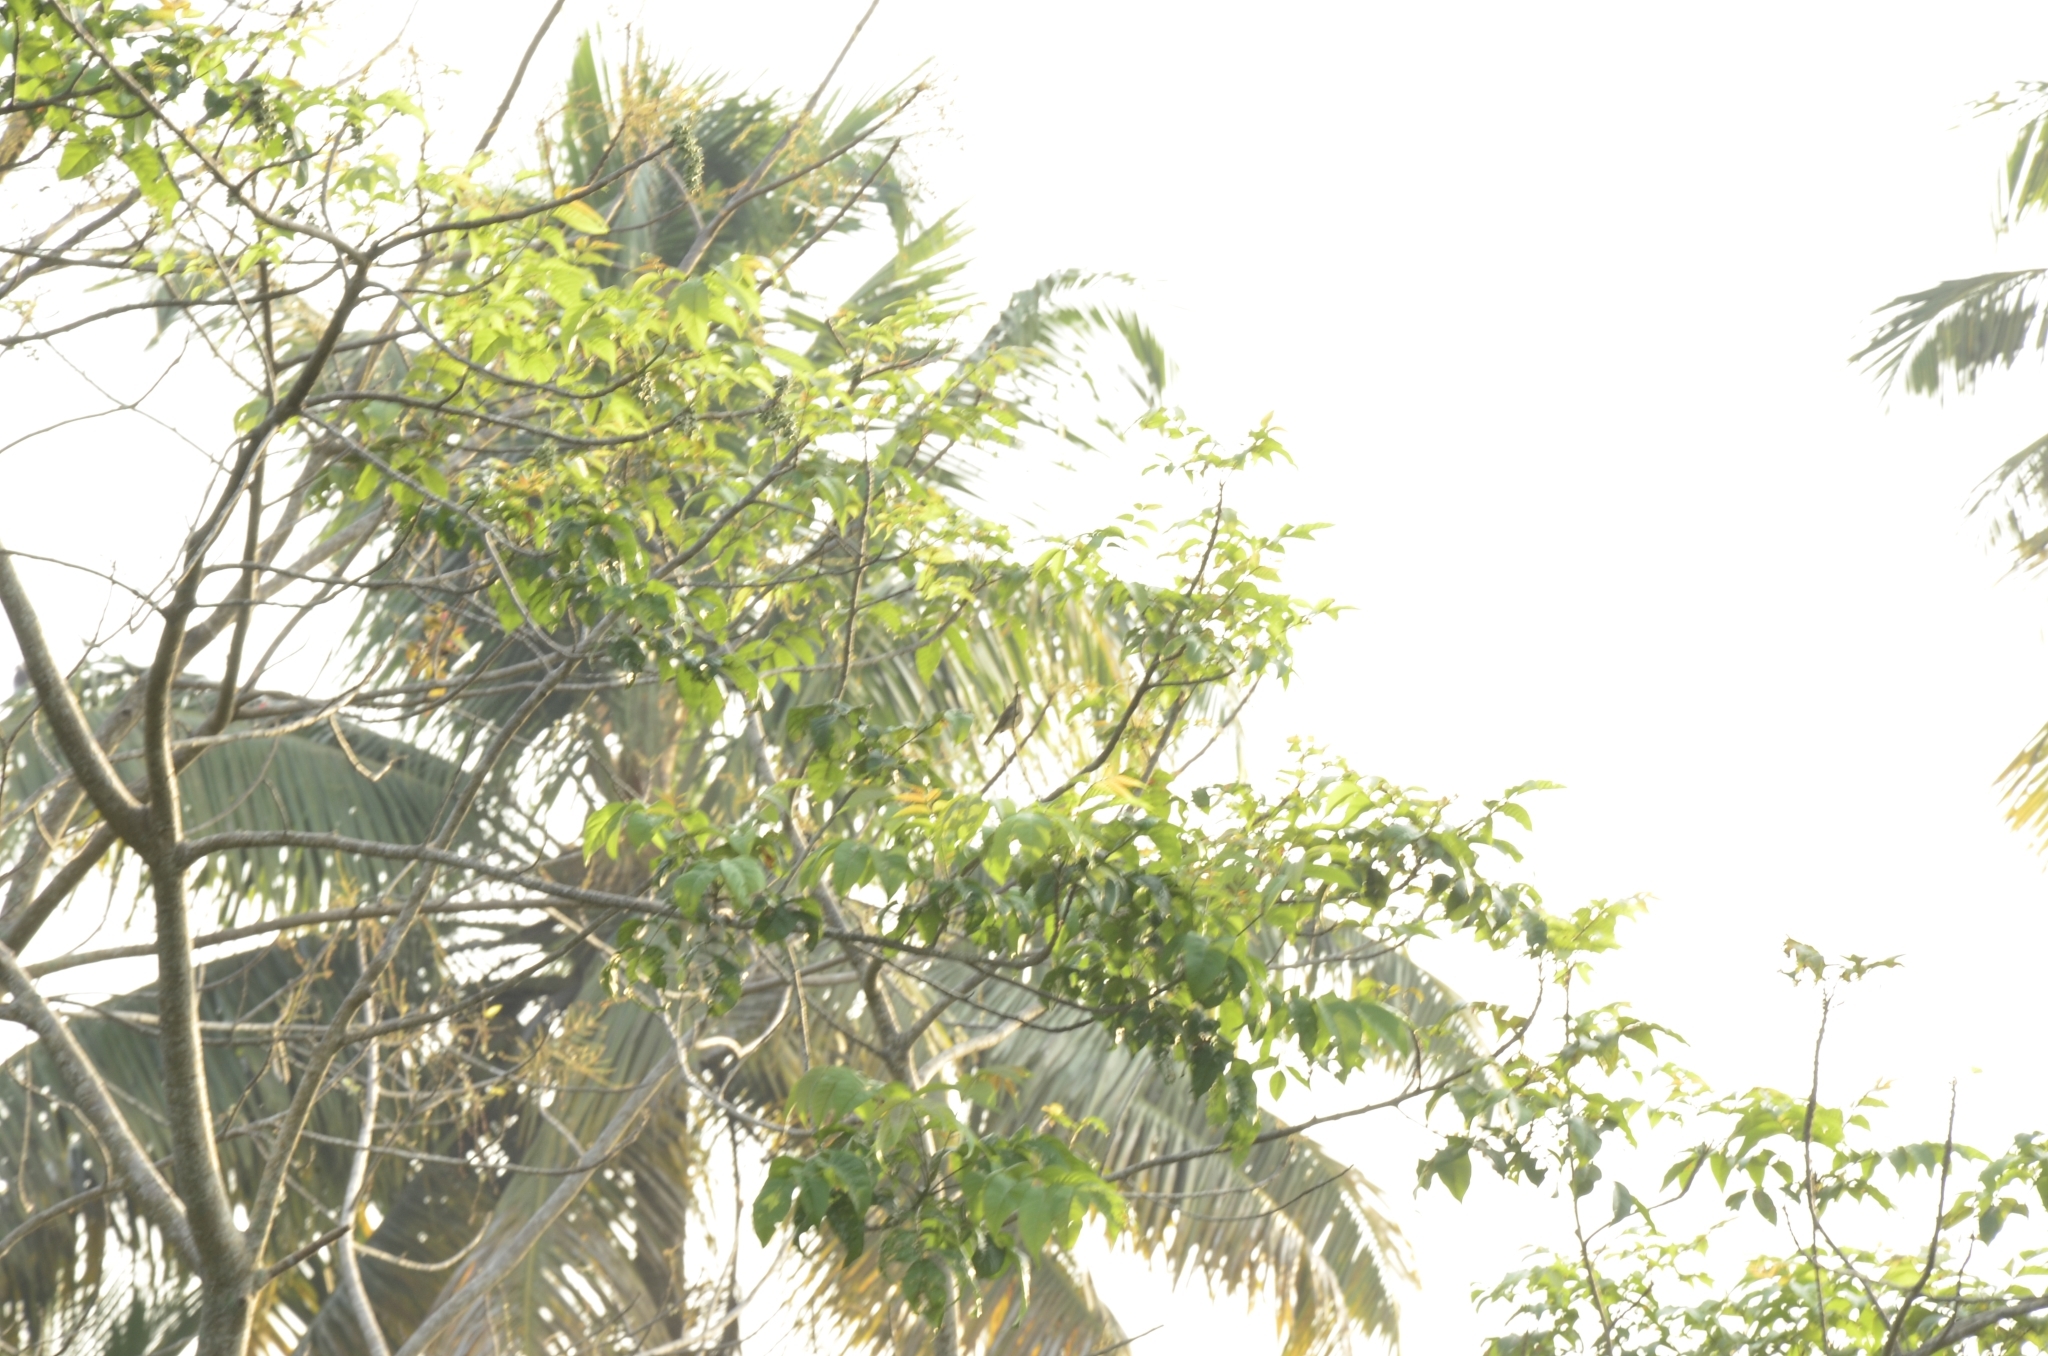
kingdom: Plantae
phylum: Tracheophyta
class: Magnoliopsida
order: Sapindales
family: Anacardiaceae
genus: Lannea
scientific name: Lannea coromandelica
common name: Indian ash tree
